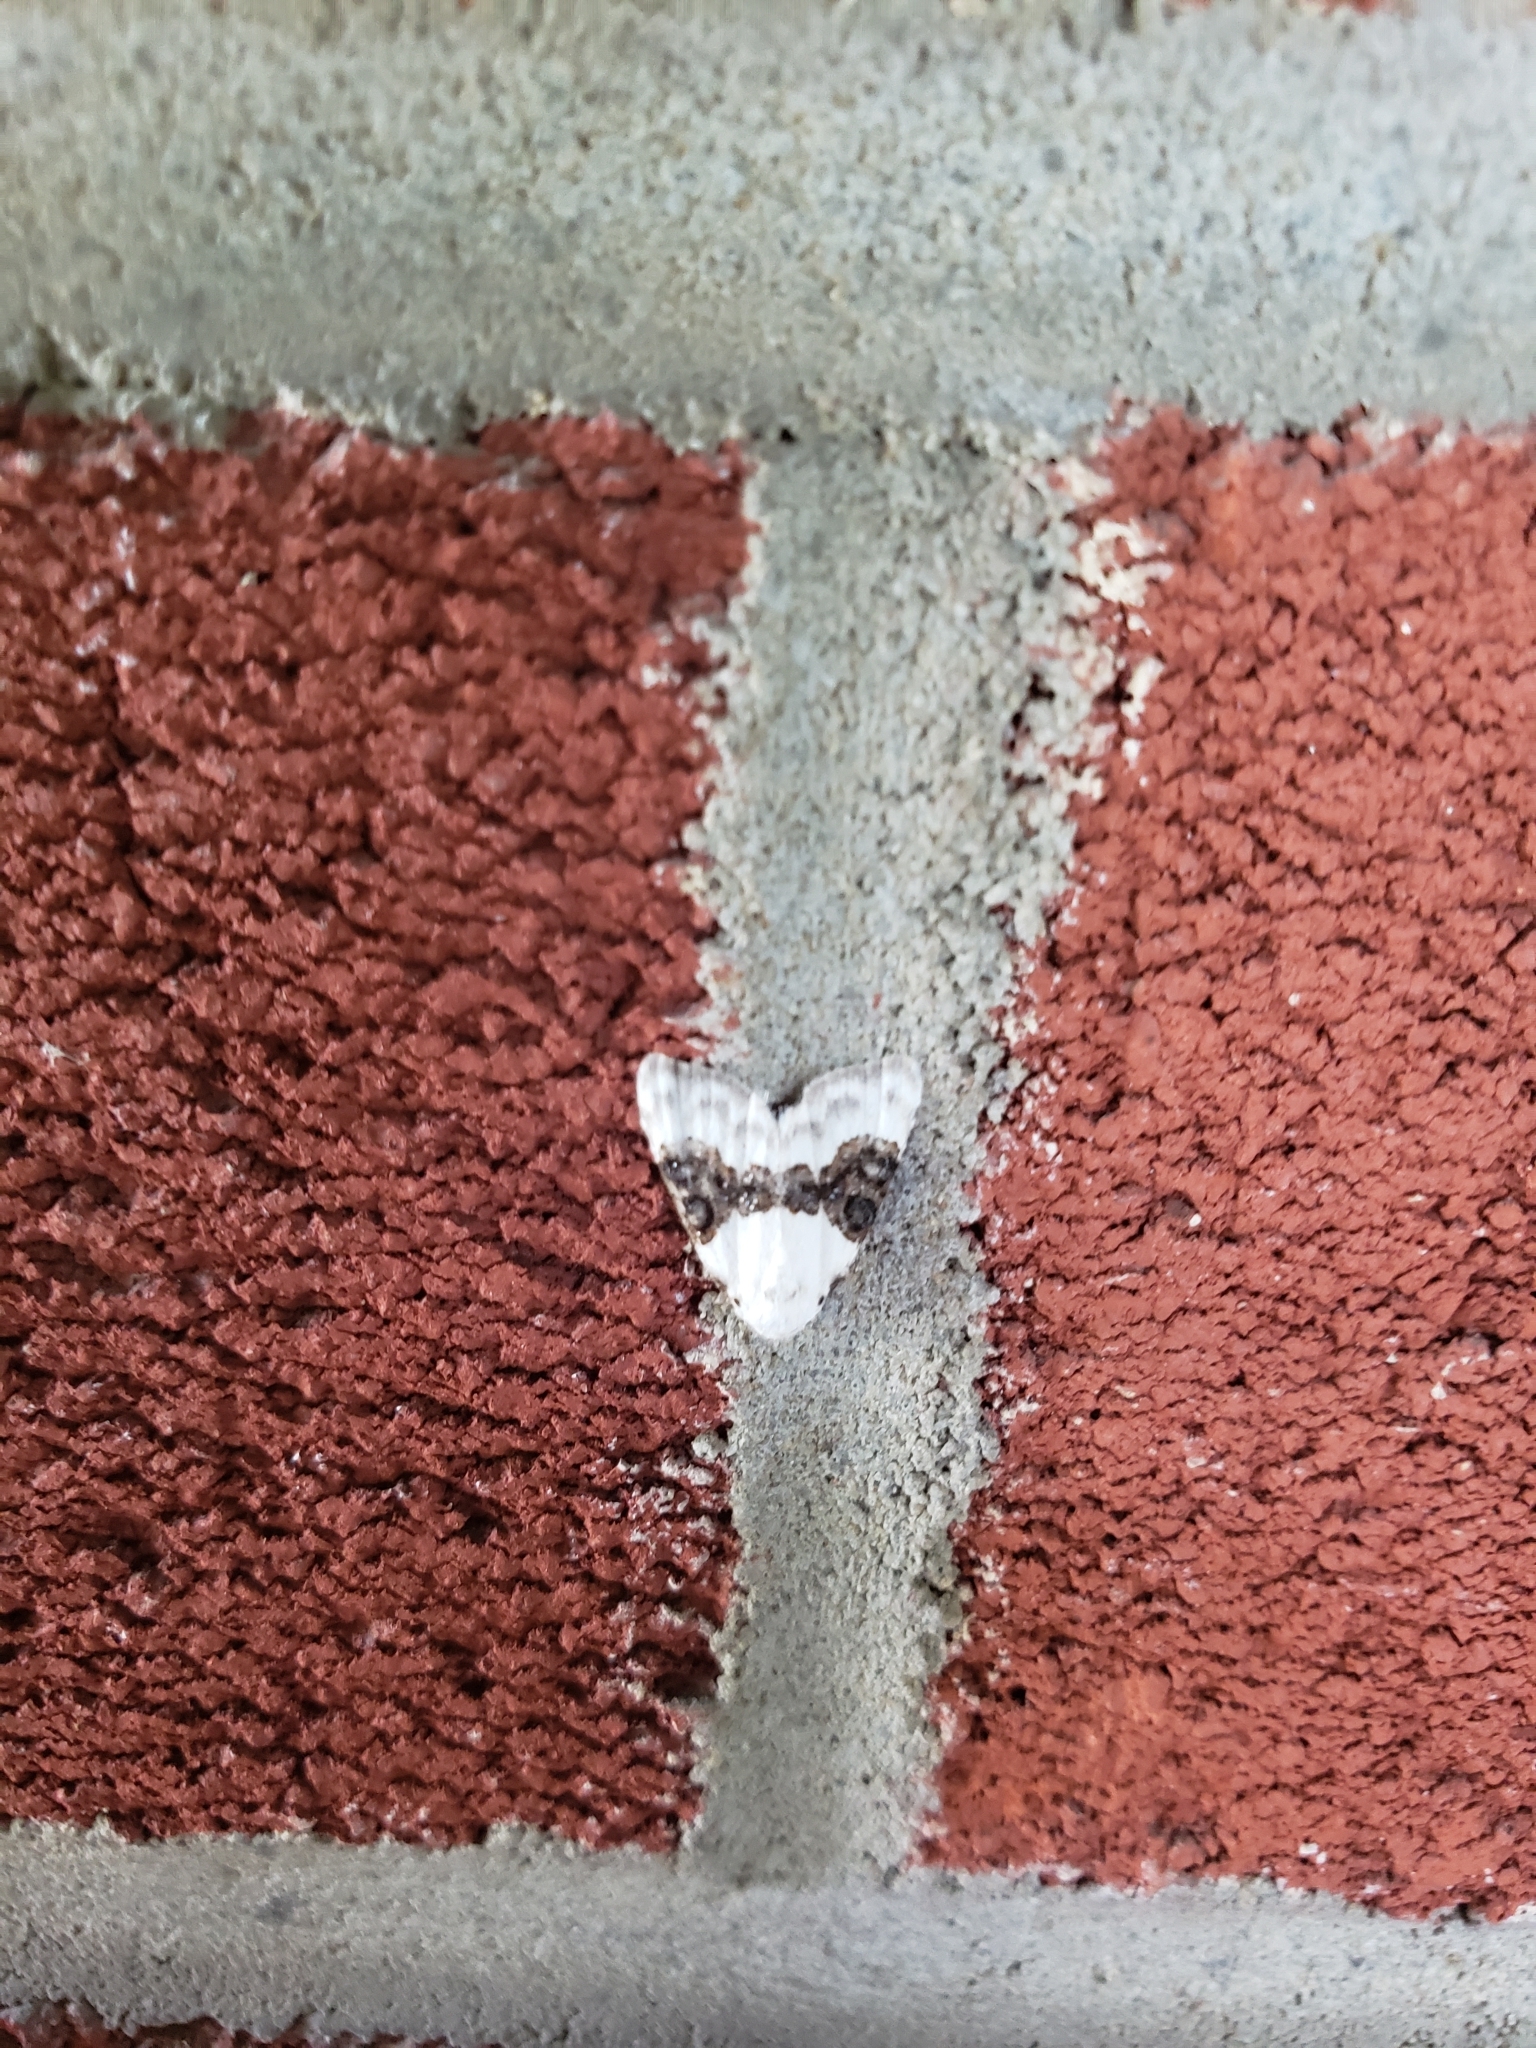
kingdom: Animalia
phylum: Arthropoda
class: Insecta
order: Lepidoptera
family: Nolidae
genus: Nola
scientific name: Nola pustulata
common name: Sharp-blotched nola moth
